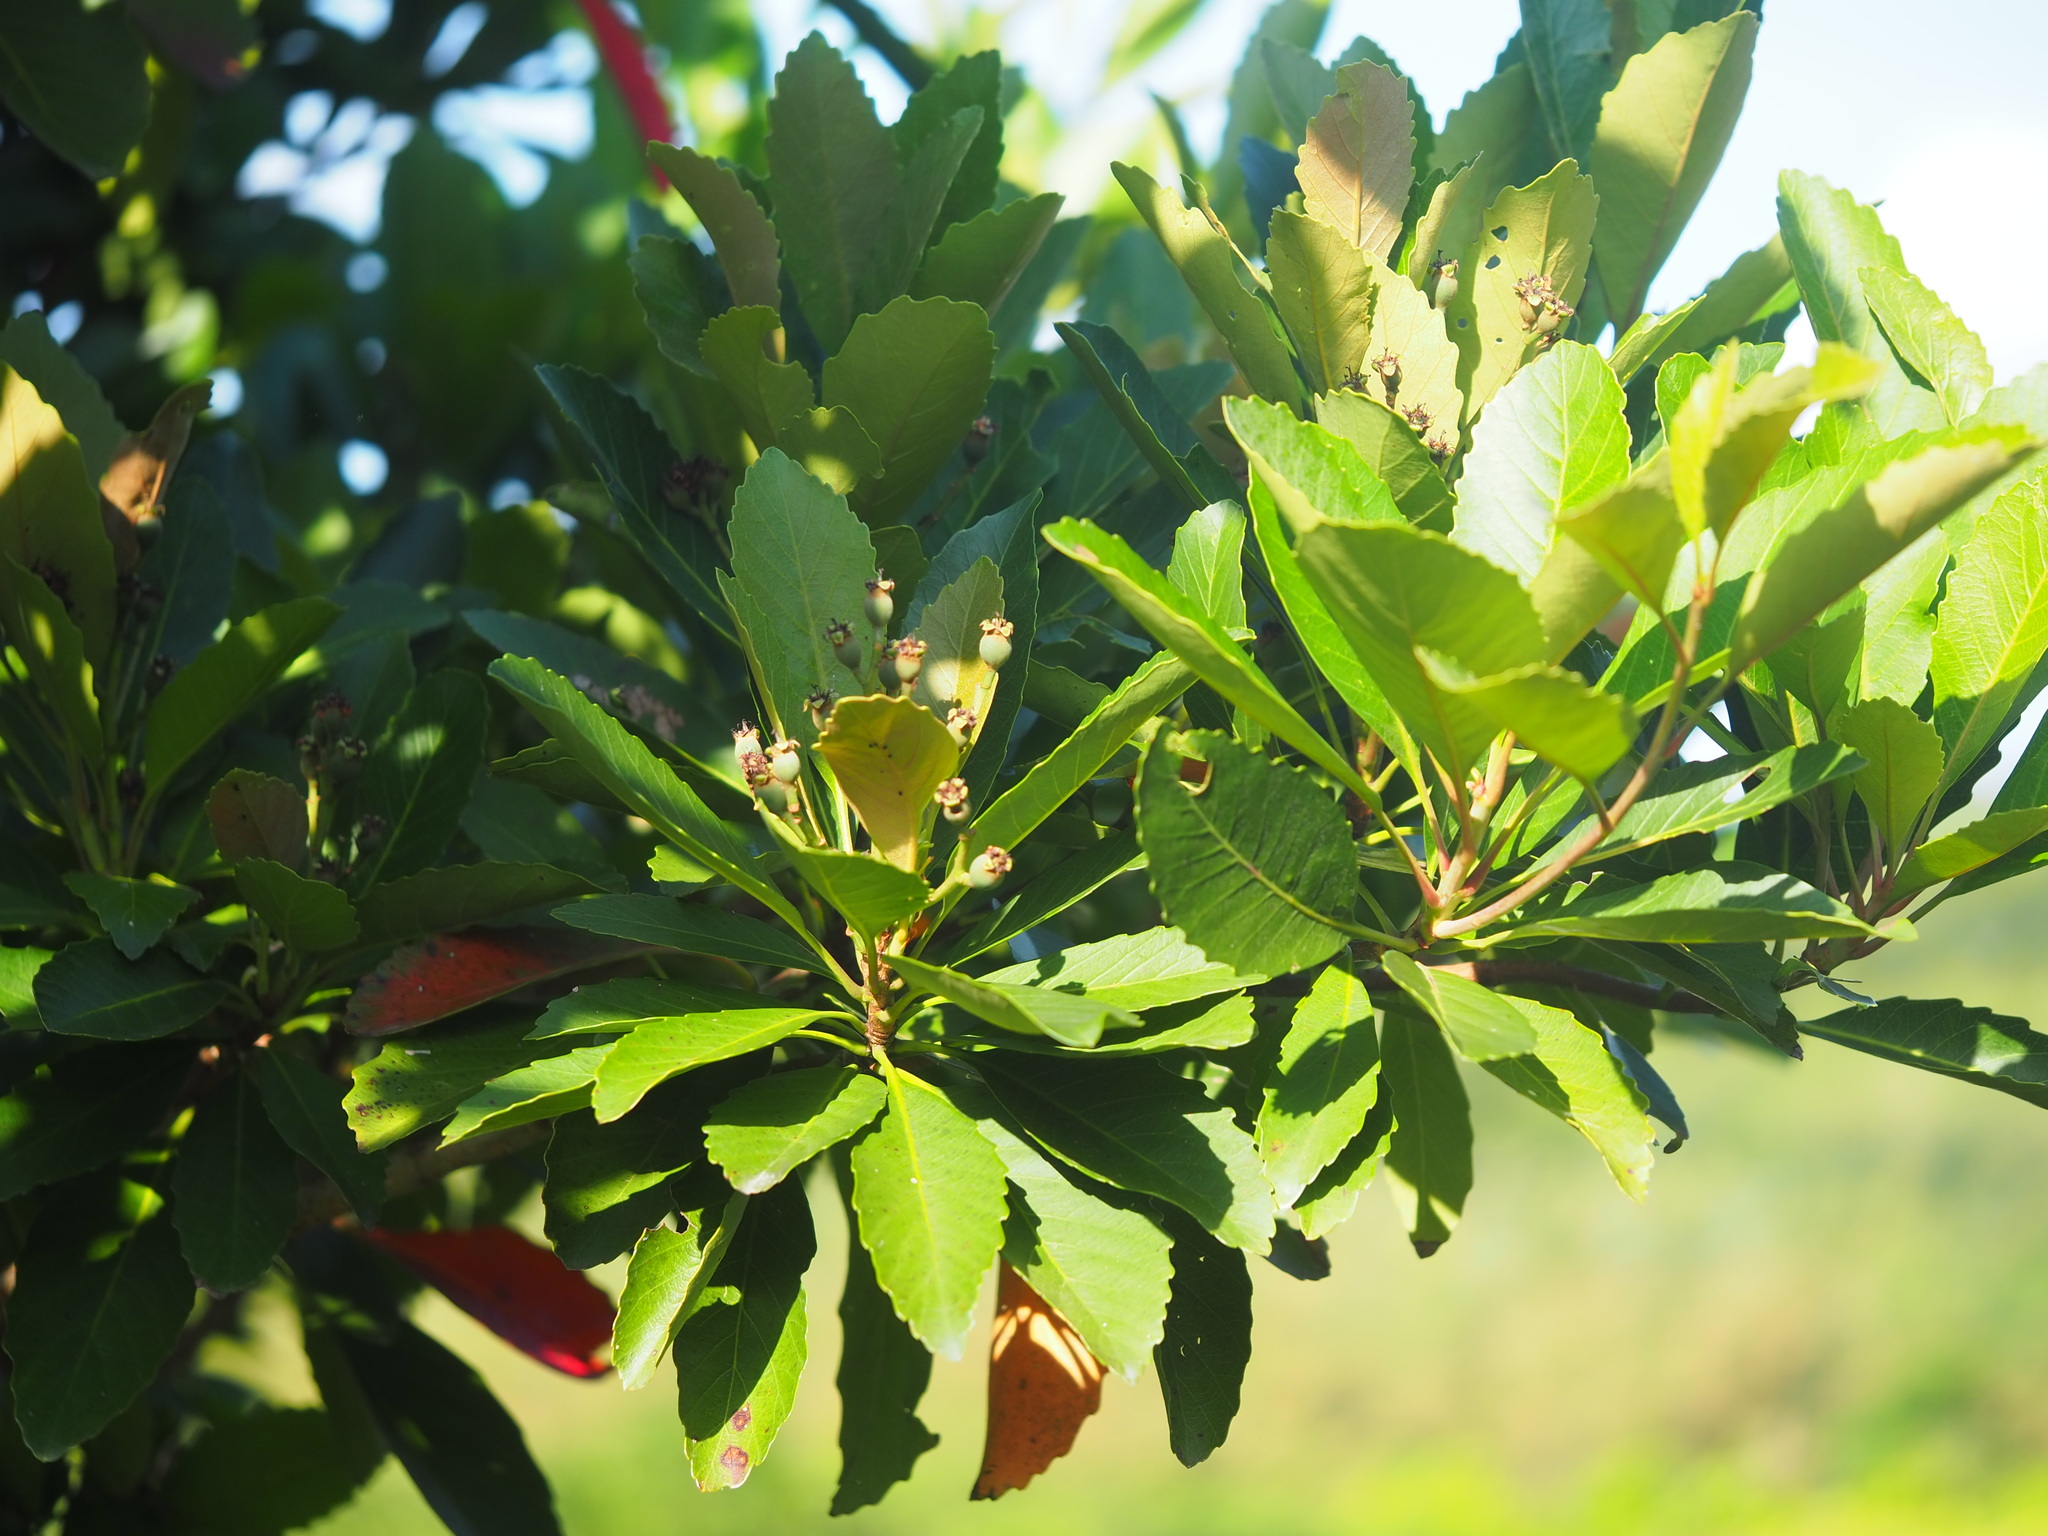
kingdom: Plantae
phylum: Tracheophyta
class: Magnoliopsida
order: Rosales
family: Rosaceae
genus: Rhaphiolepis
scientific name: Rhaphiolepis deflexa
